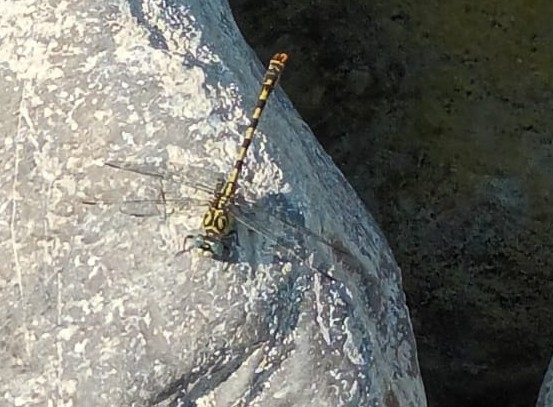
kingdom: Animalia
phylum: Arthropoda
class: Insecta
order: Odonata
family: Gomphidae
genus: Onychogomphus
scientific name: Onychogomphus forcipatus
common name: Small pincertail
